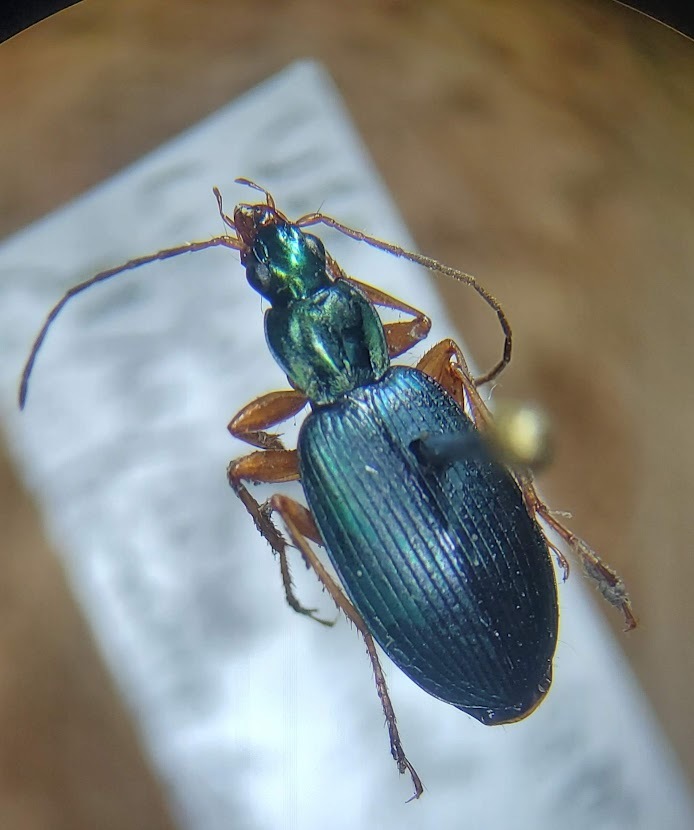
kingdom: Animalia
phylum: Arthropoda
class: Insecta
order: Coleoptera
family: Carabidae
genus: Agonum
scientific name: Agonum extensicolle
